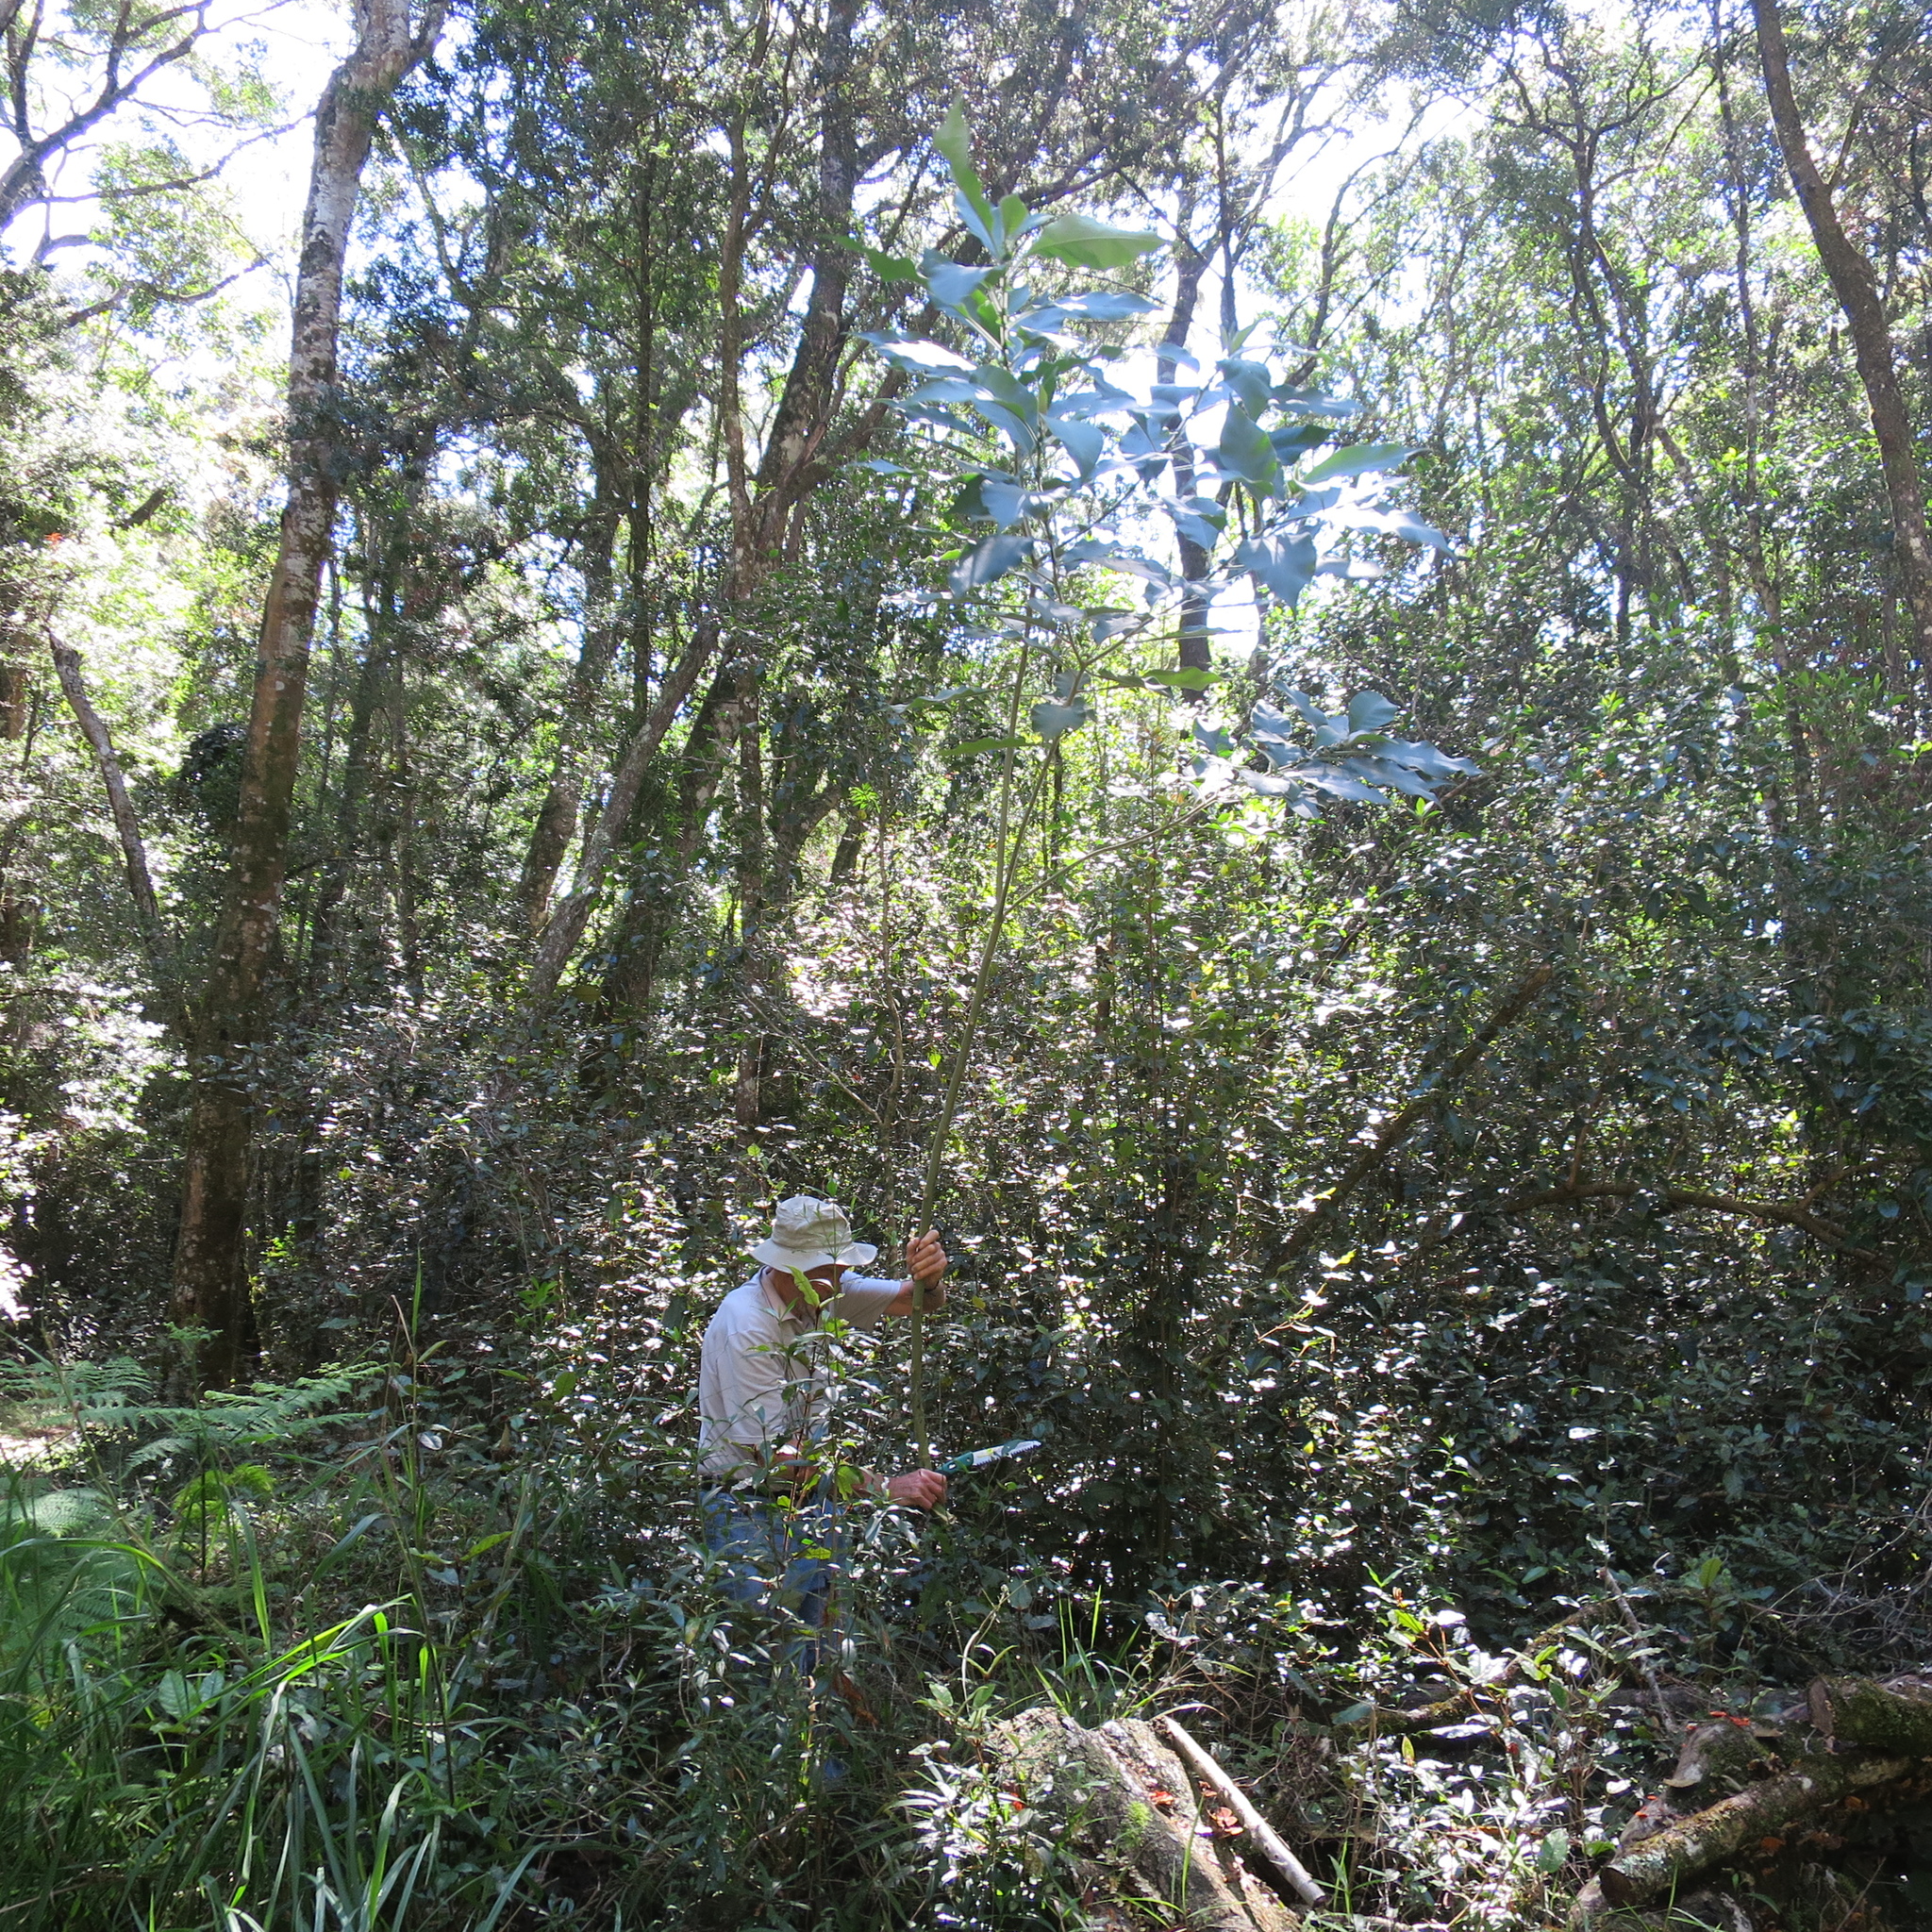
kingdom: Plantae
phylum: Tracheophyta
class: Magnoliopsida
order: Solanales
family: Solanaceae
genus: Solanum
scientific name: Solanum mauritianum
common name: Earleaf nightshade
